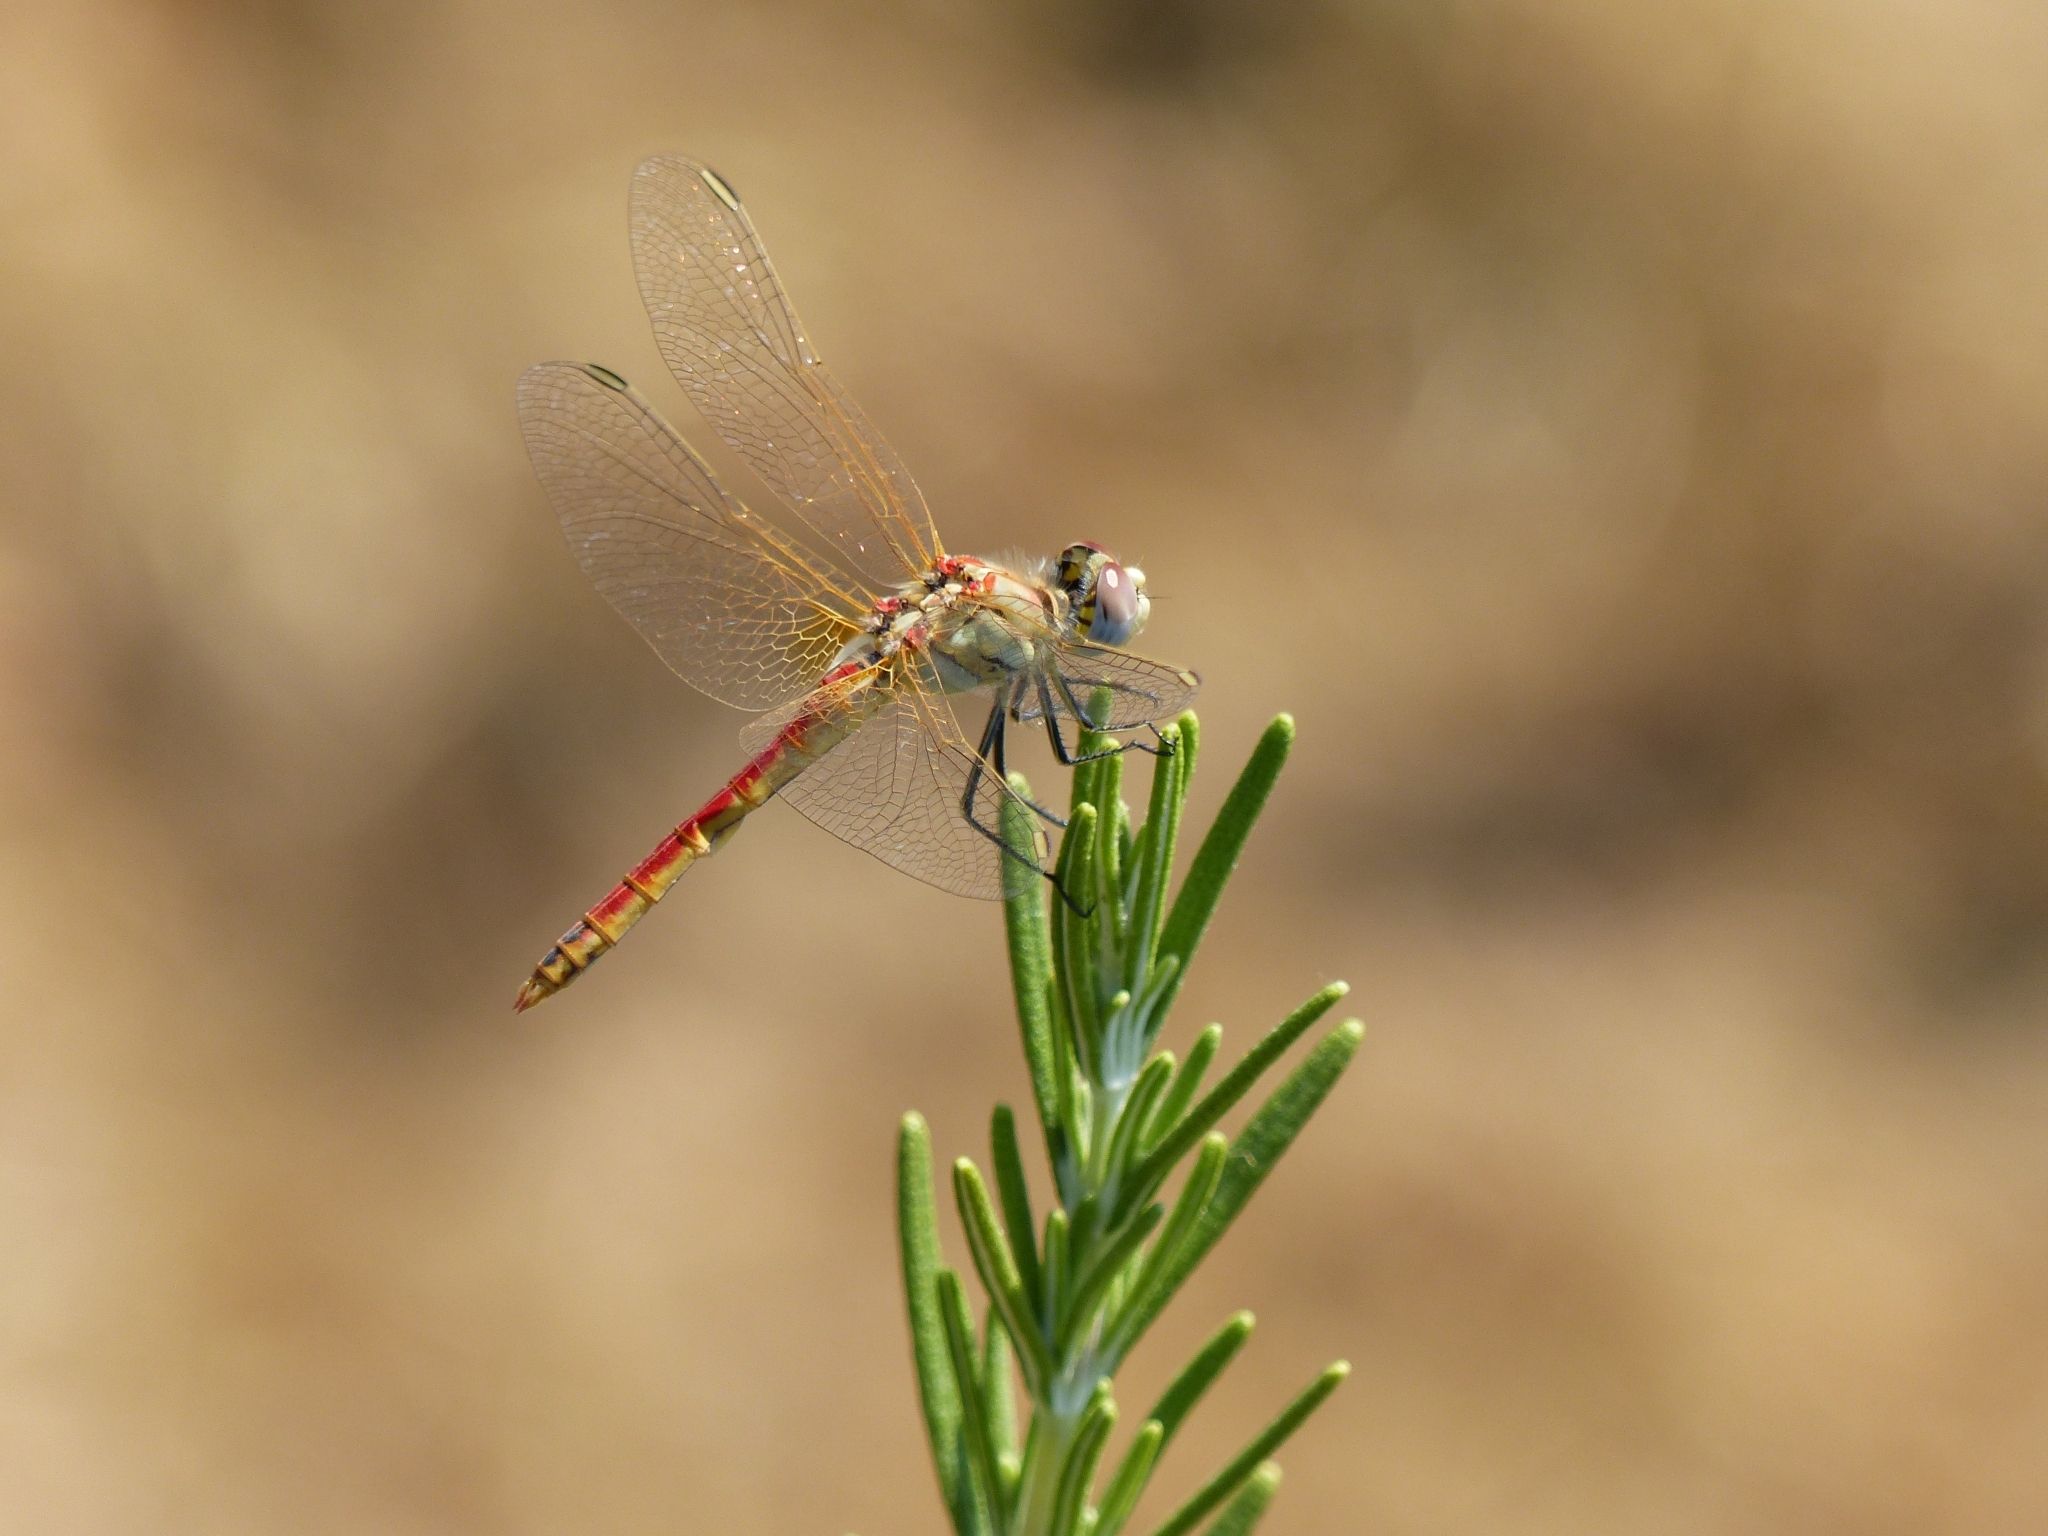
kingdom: Animalia
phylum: Arthropoda
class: Insecta
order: Odonata
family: Libellulidae
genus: Sympetrum
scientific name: Sympetrum fonscolombii
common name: Red-veined darter
